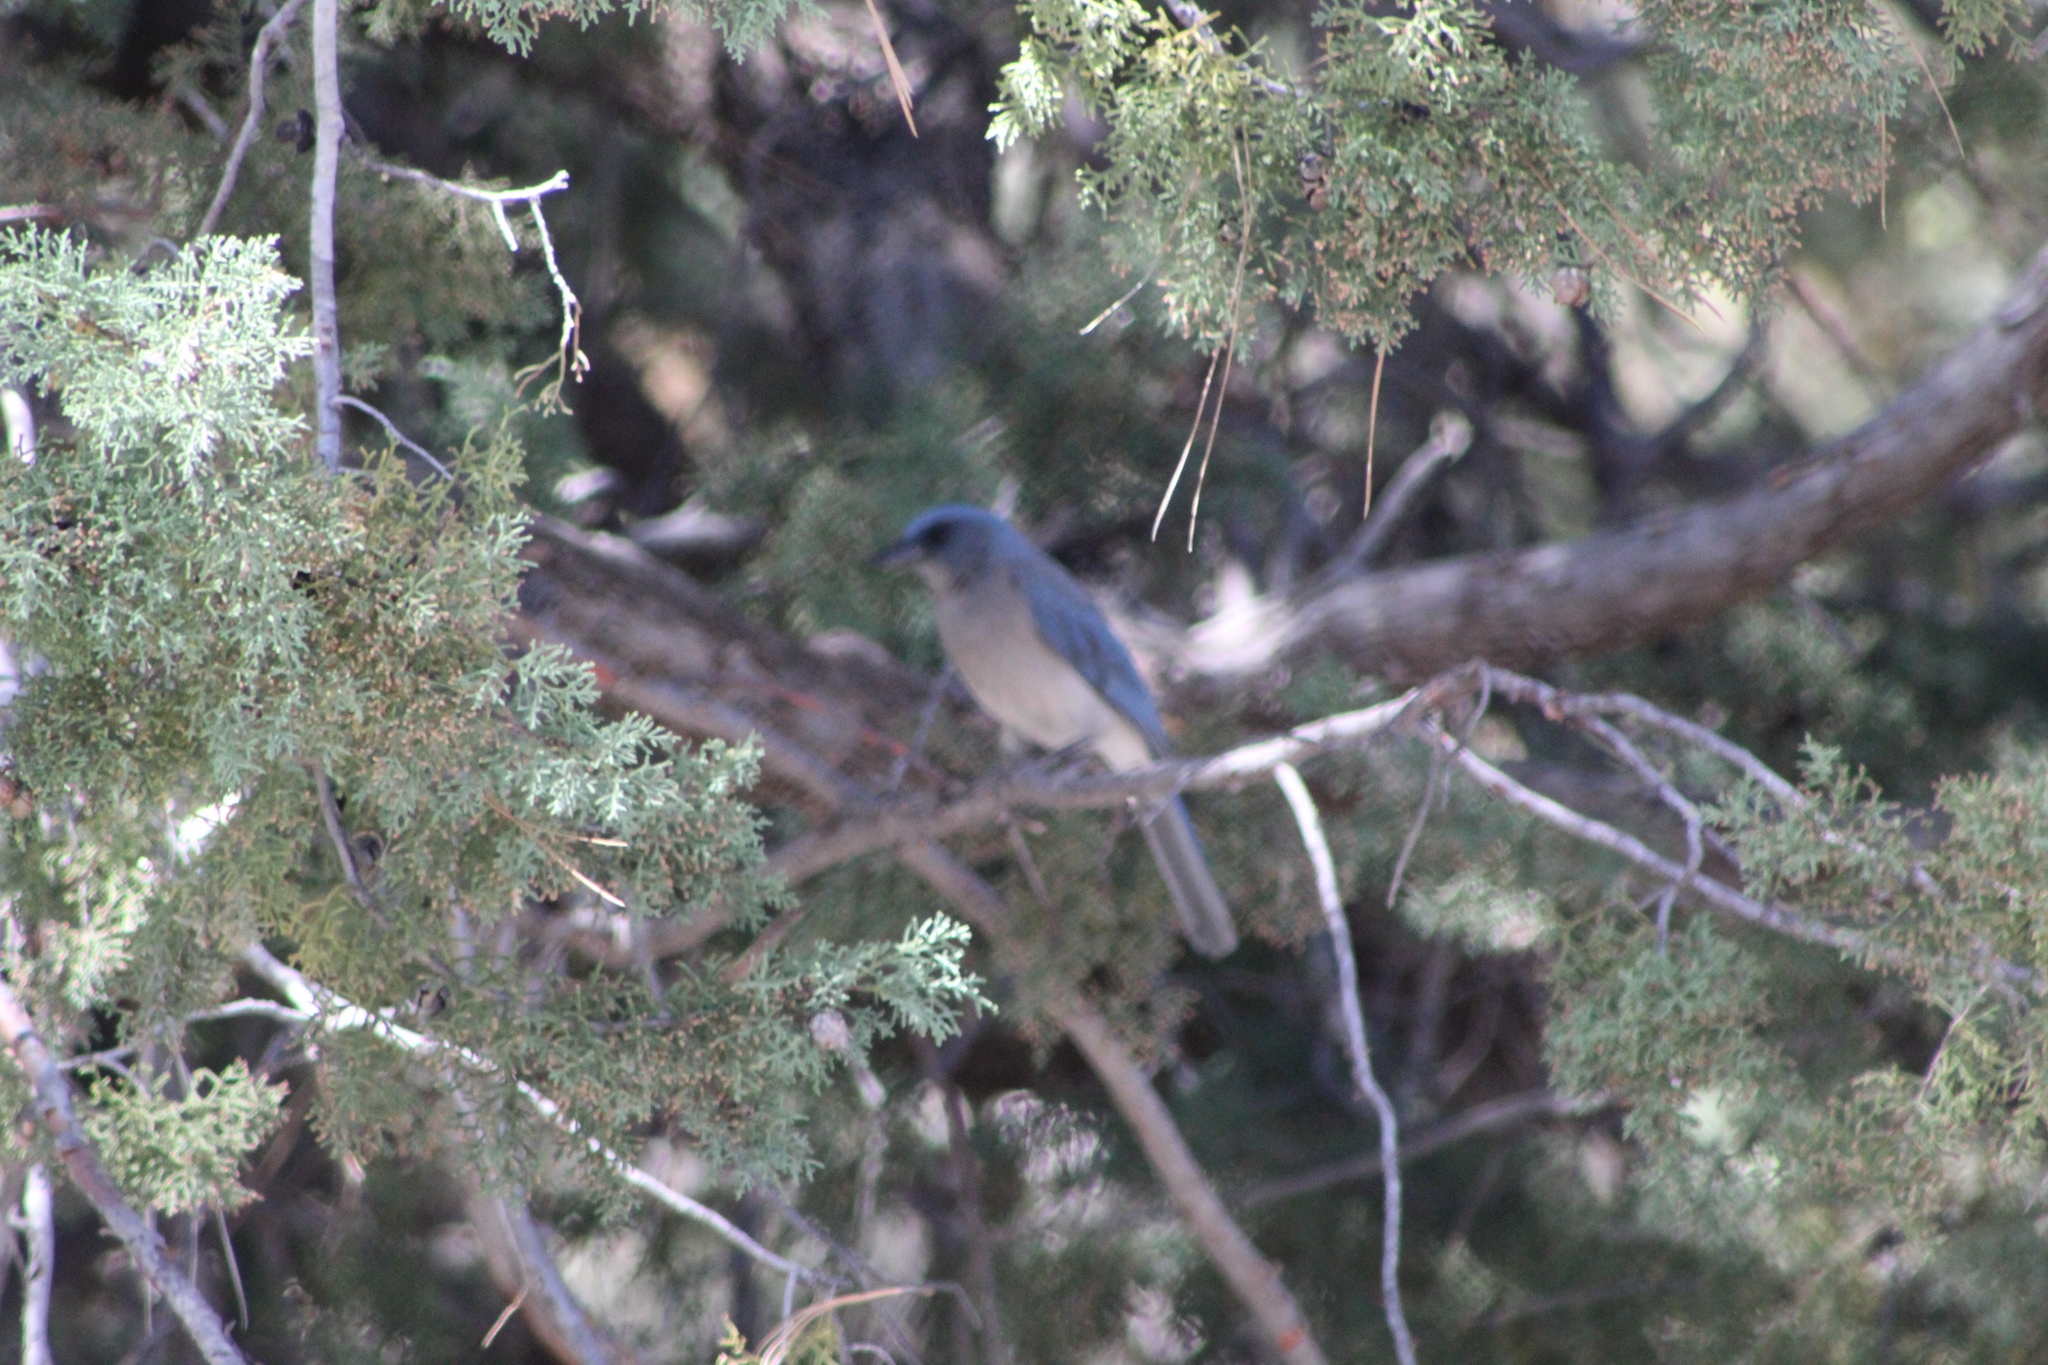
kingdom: Animalia
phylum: Chordata
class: Aves
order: Passeriformes
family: Corvidae
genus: Aphelocoma
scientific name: Aphelocoma wollweberi
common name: Mexican jay
